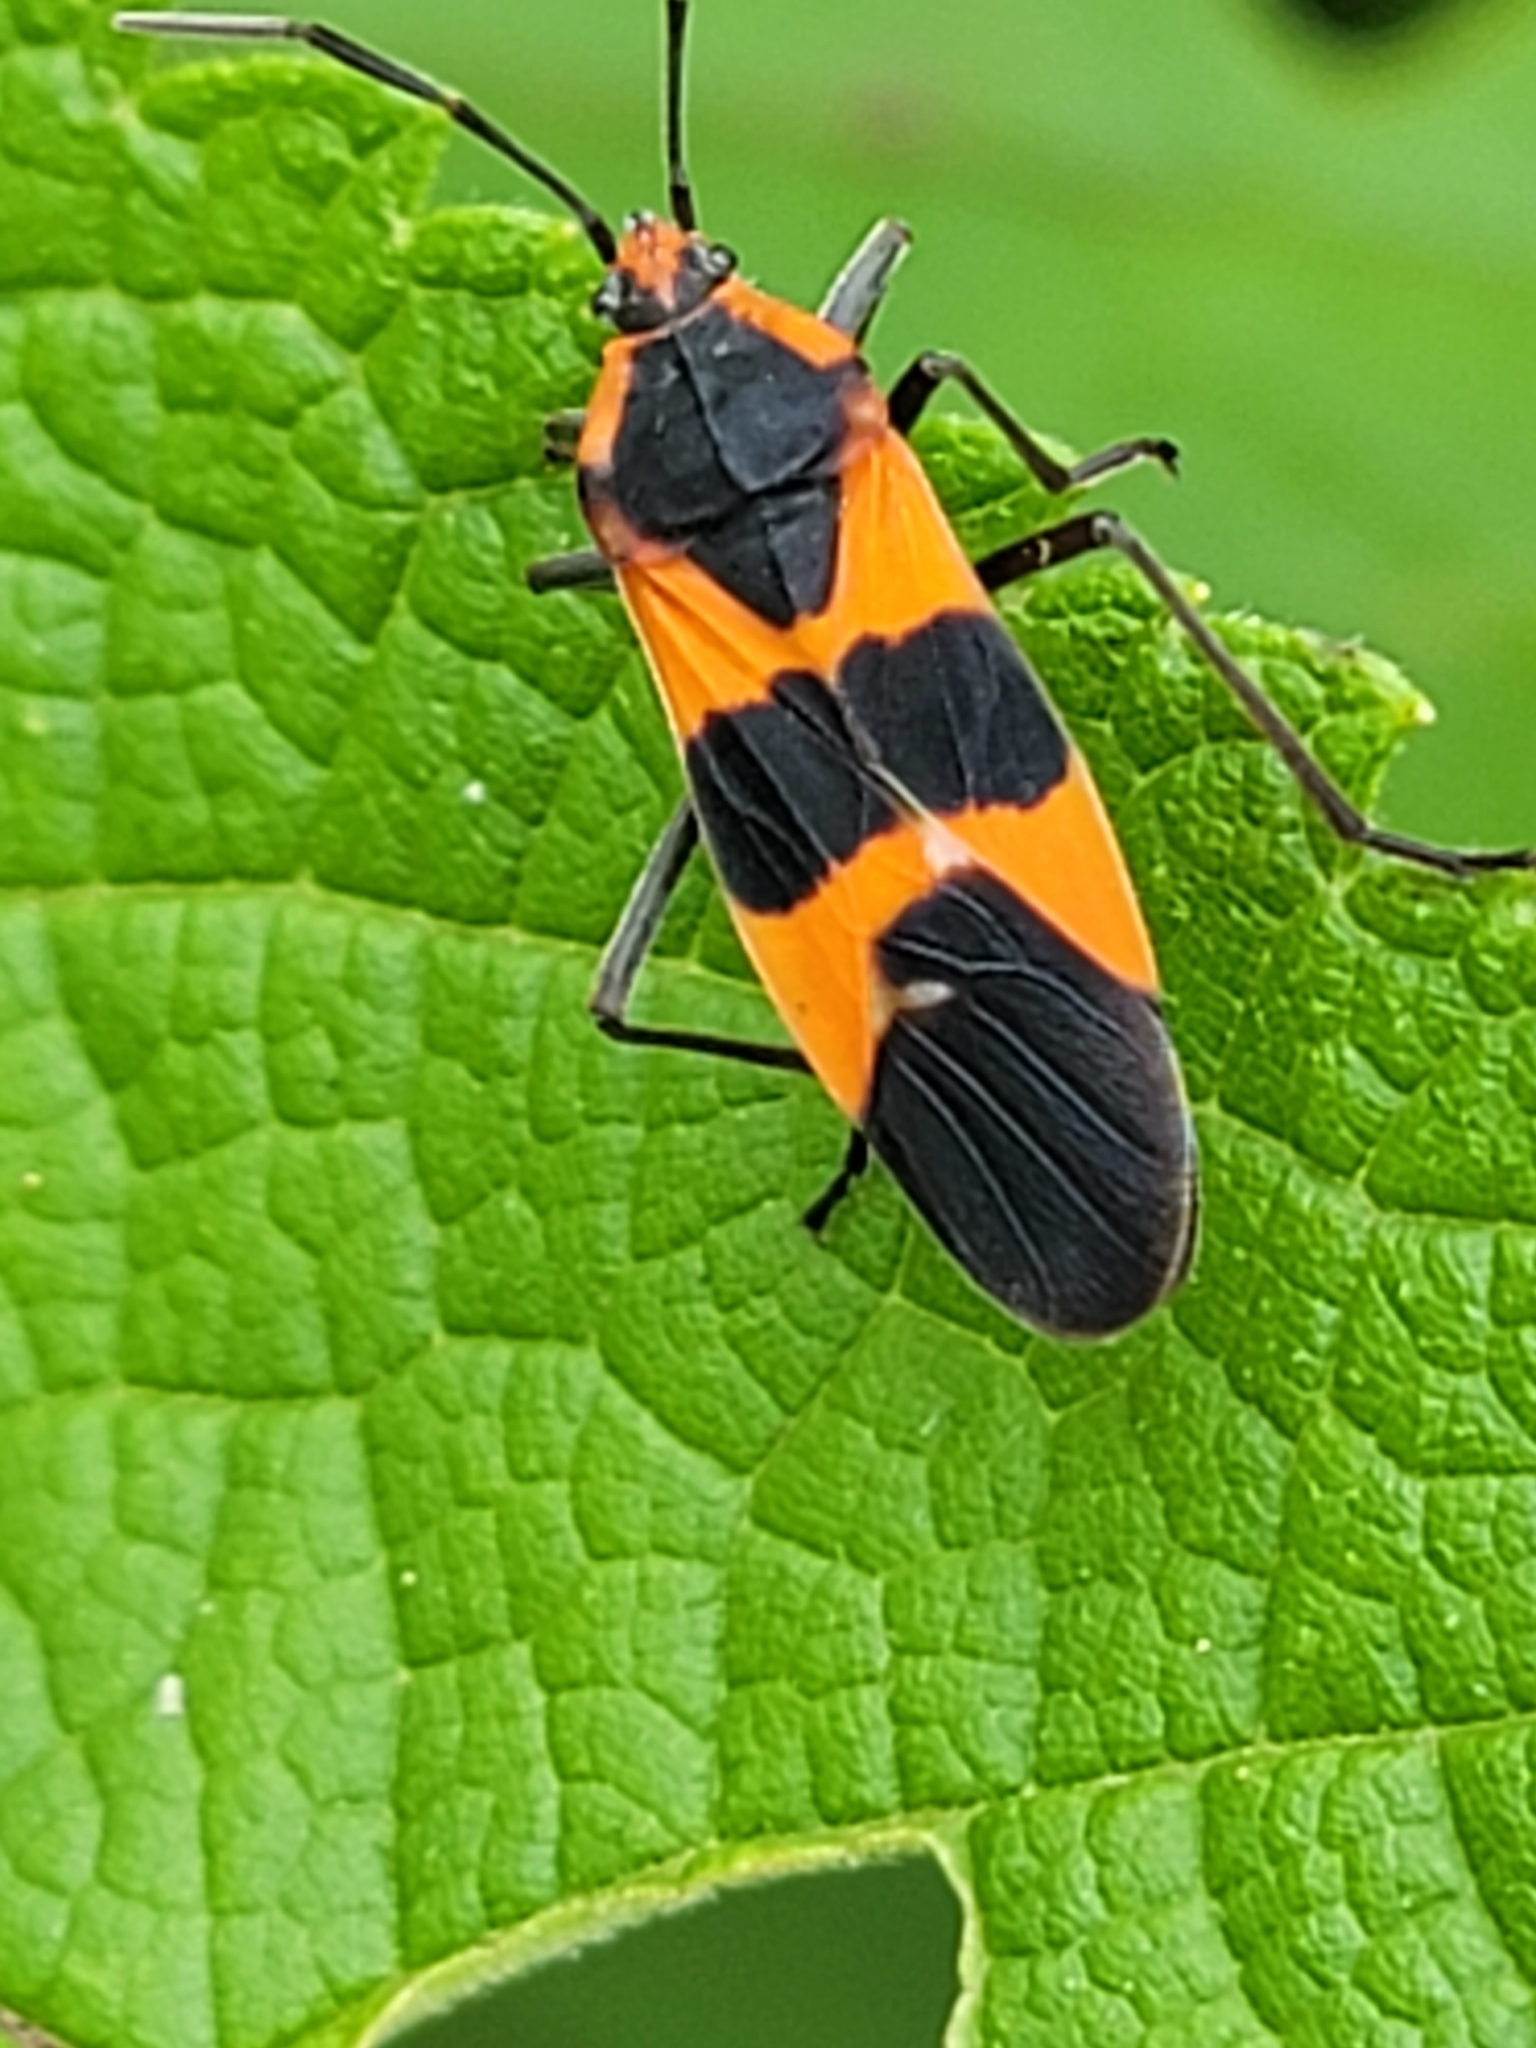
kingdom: Animalia
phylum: Arthropoda
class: Insecta
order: Hemiptera
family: Lygaeidae
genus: Oncopeltus
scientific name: Oncopeltus fasciatus
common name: Large milkweed bug
